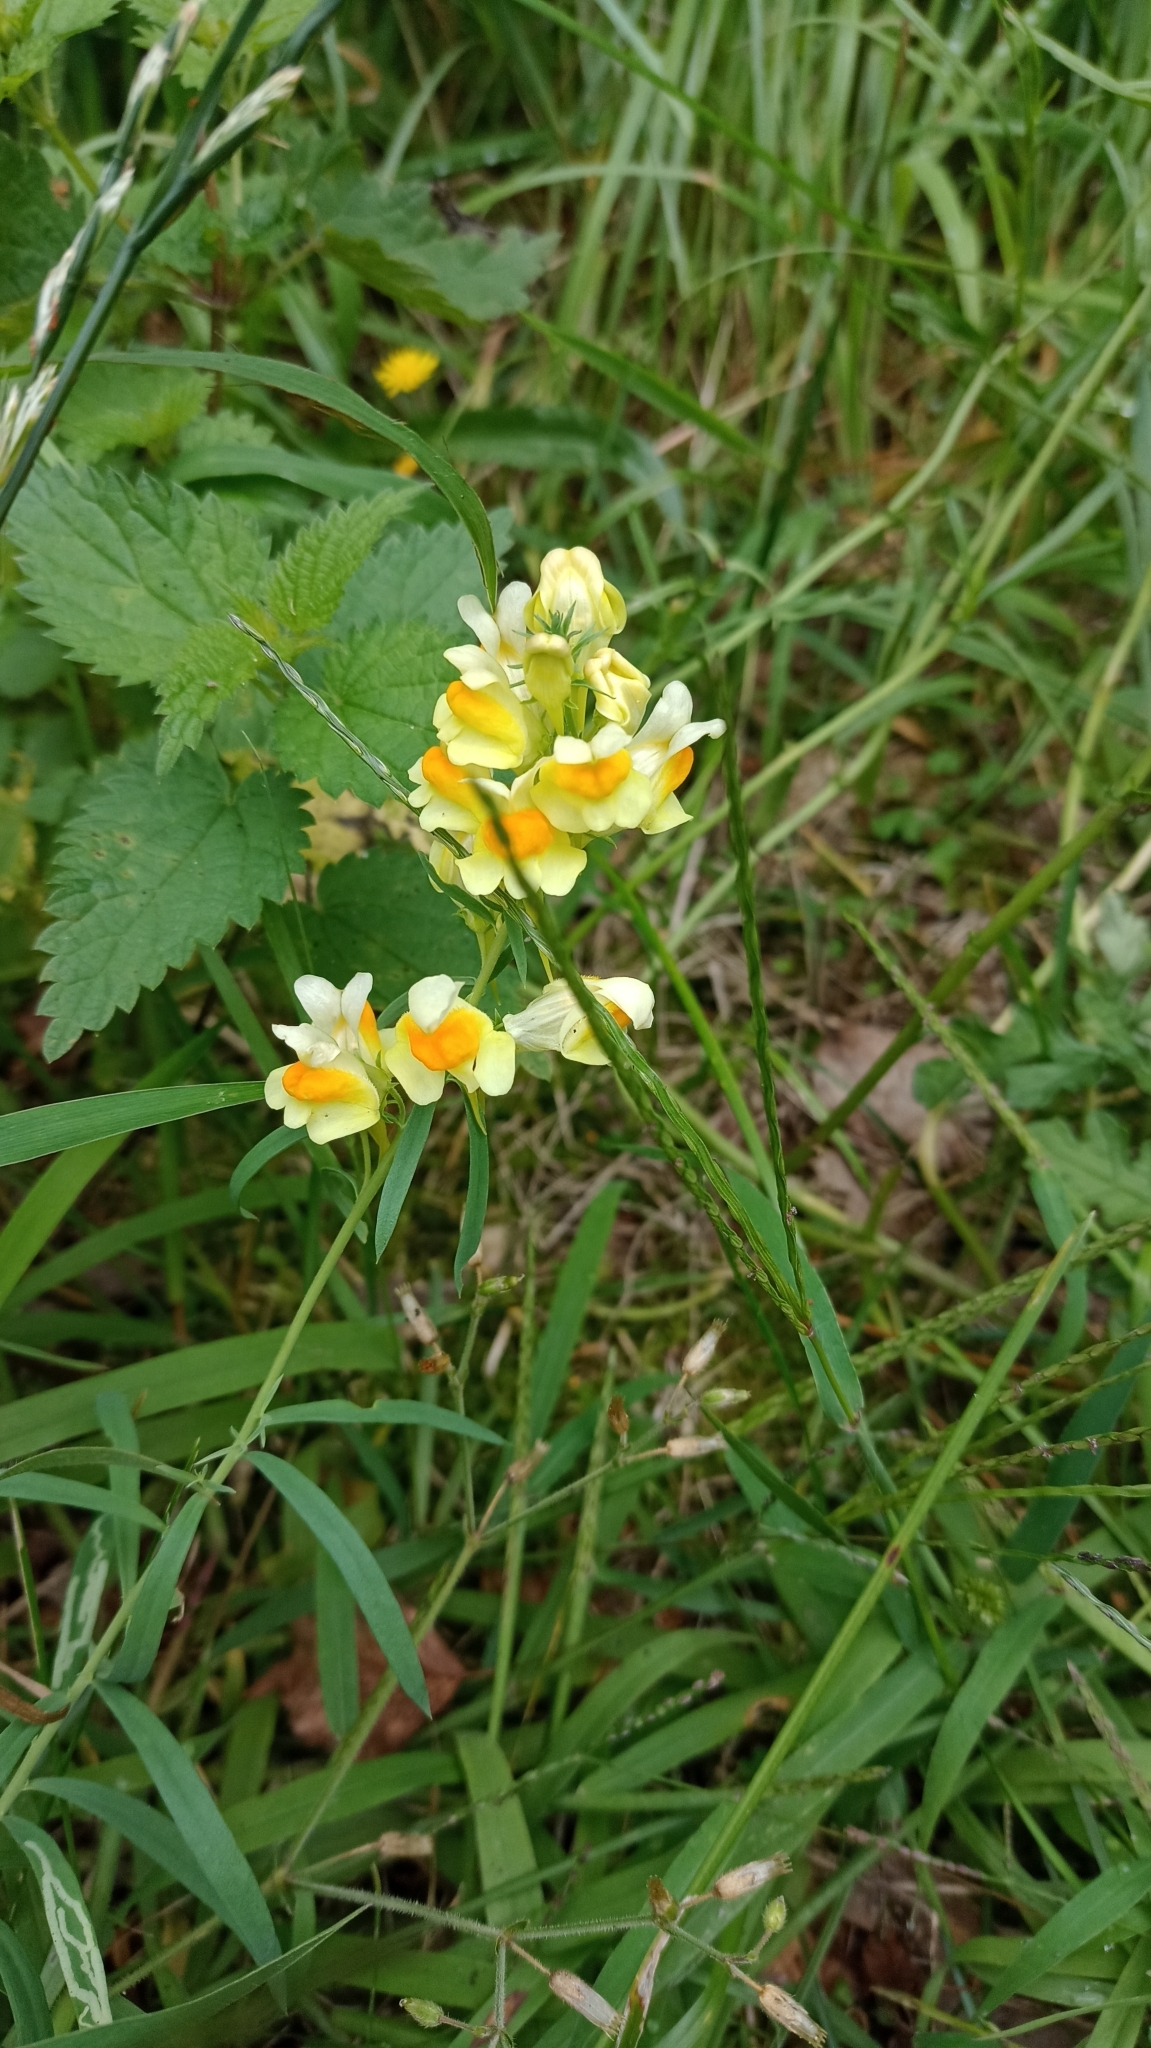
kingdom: Plantae
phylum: Tracheophyta
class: Magnoliopsida
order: Lamiales
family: Plantaginaceae
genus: Linaria
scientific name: Linaria vulgaris
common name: Butter and eggs
